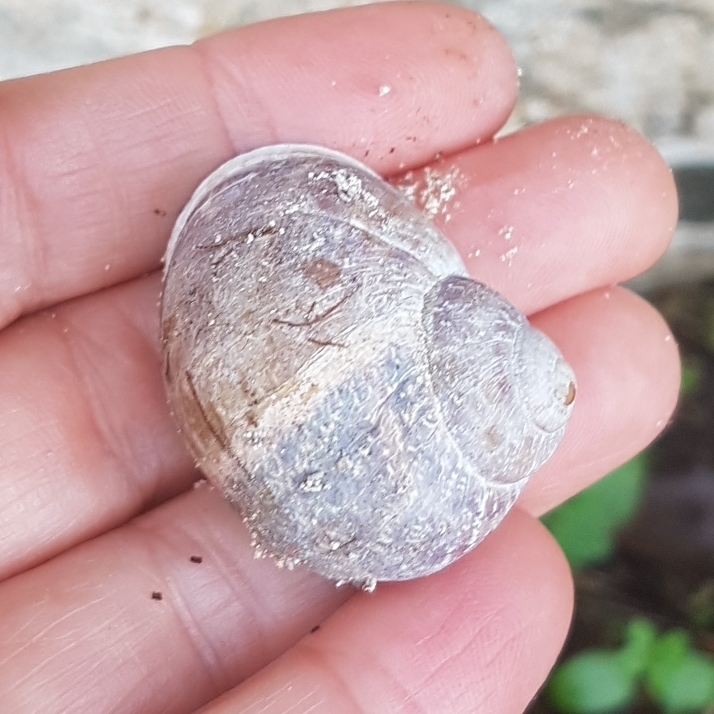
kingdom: Animalia
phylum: Mollusca
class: Gastropoda
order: Stylommatophora
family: Helicidae
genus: Cornu
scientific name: Cornu aspersum
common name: Brown garden snail
